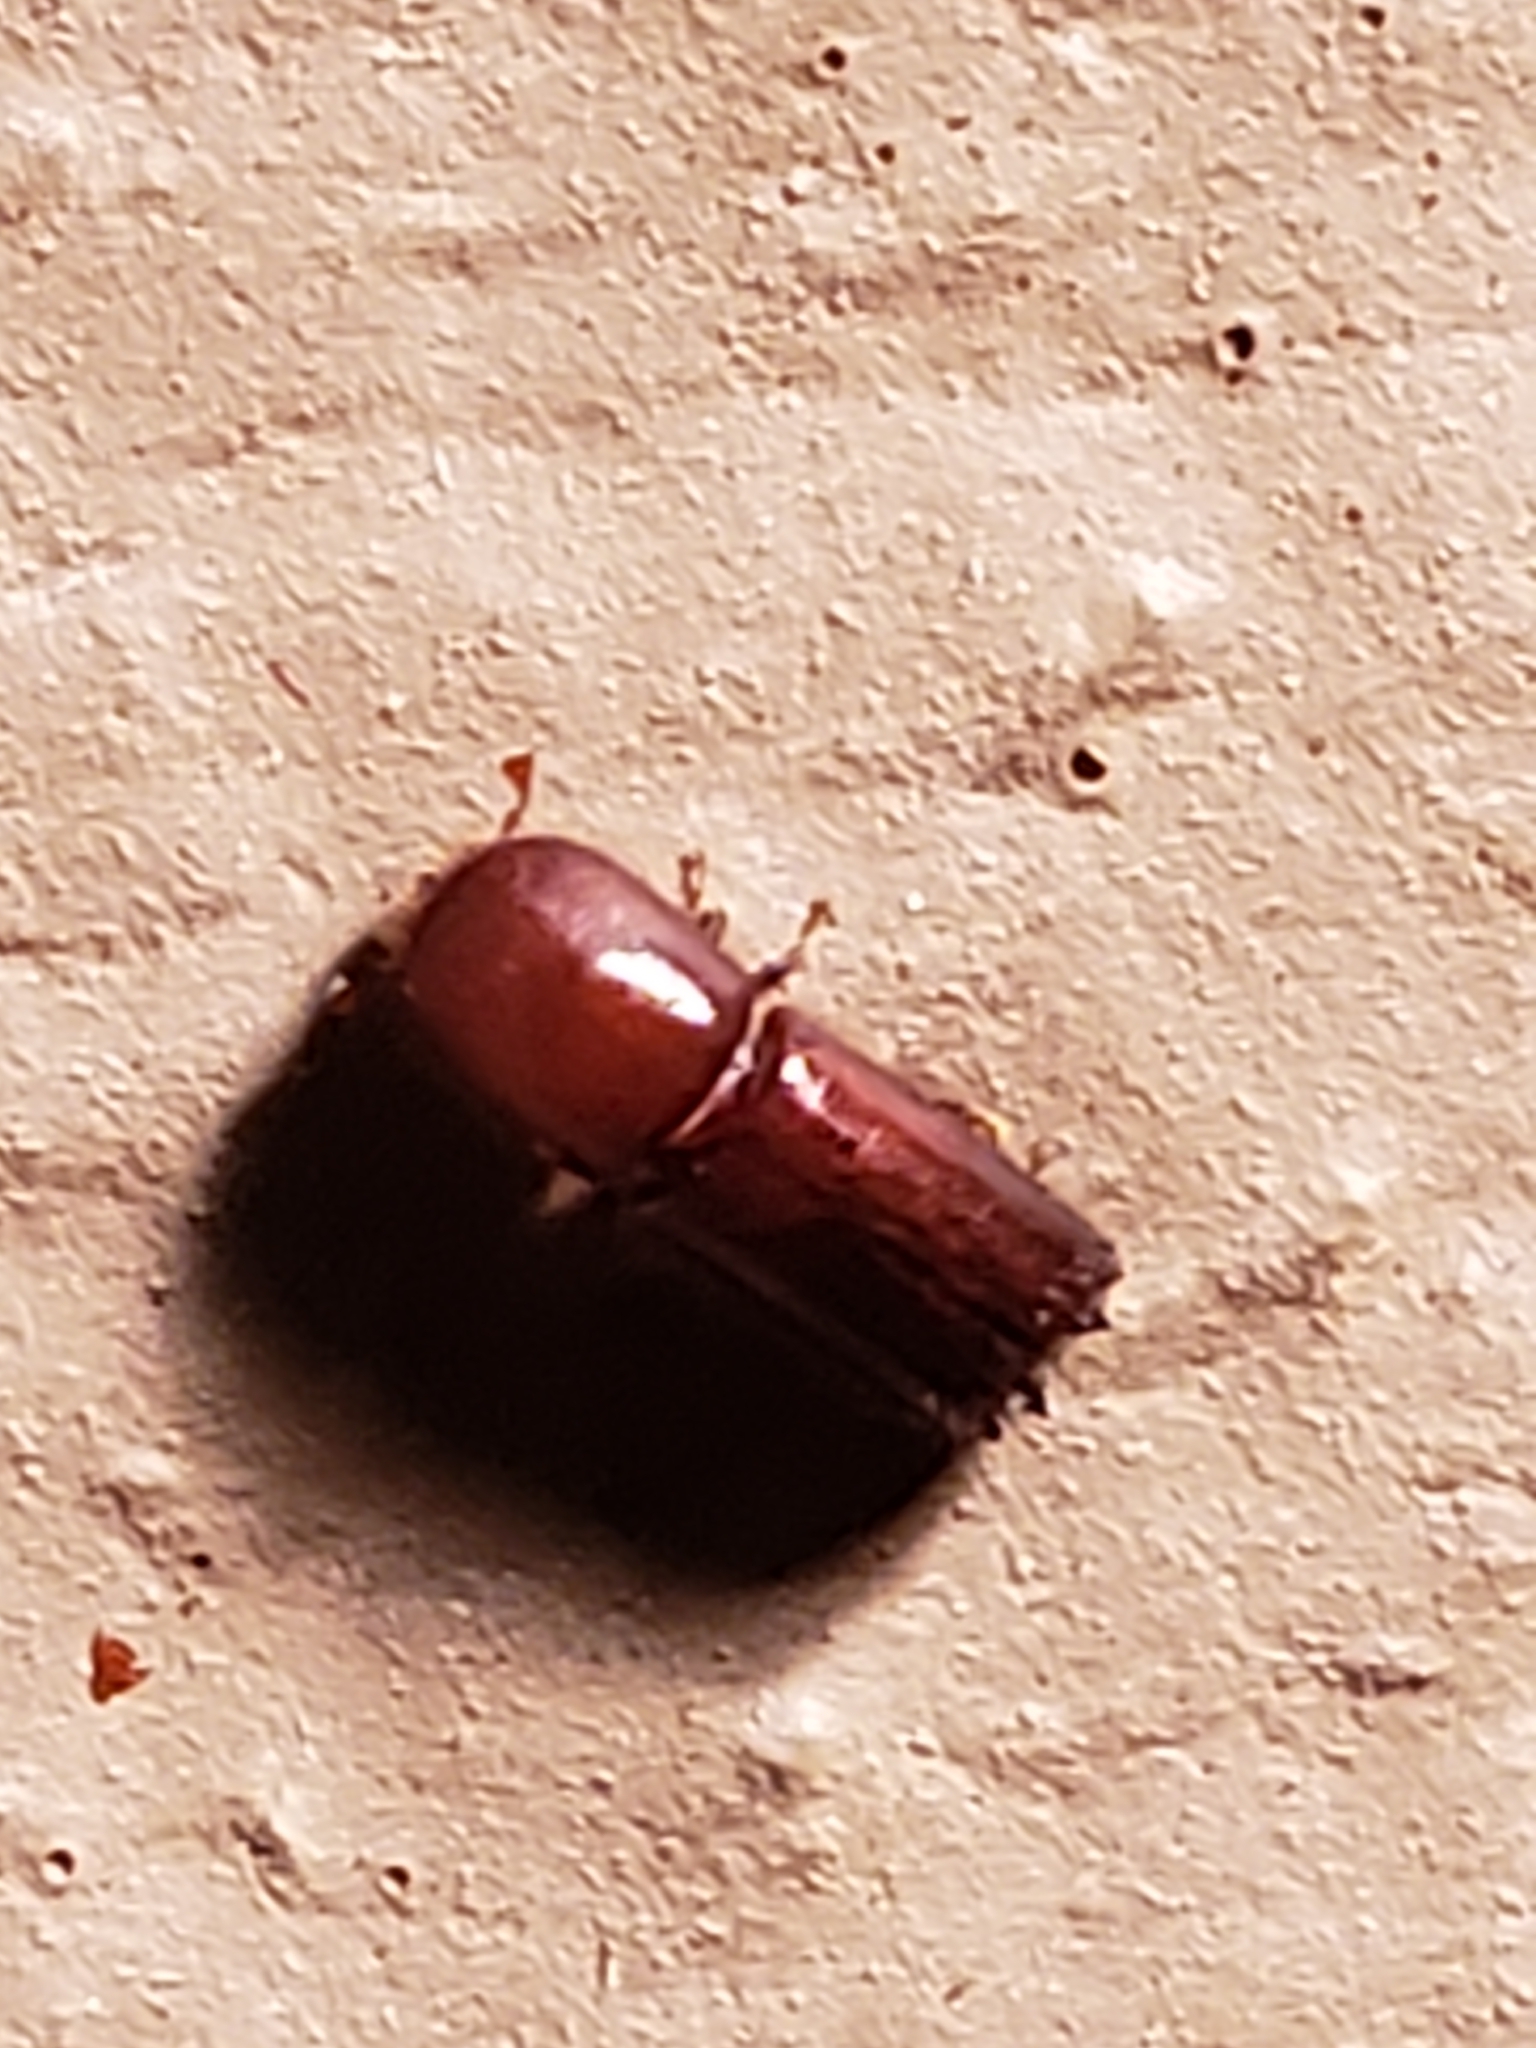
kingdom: Animalia
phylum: Arthropoda
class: Insecta
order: Coleoptera
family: Curculionidae
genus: Xyleborus
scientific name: Xyleborus celsus
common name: Weevil
